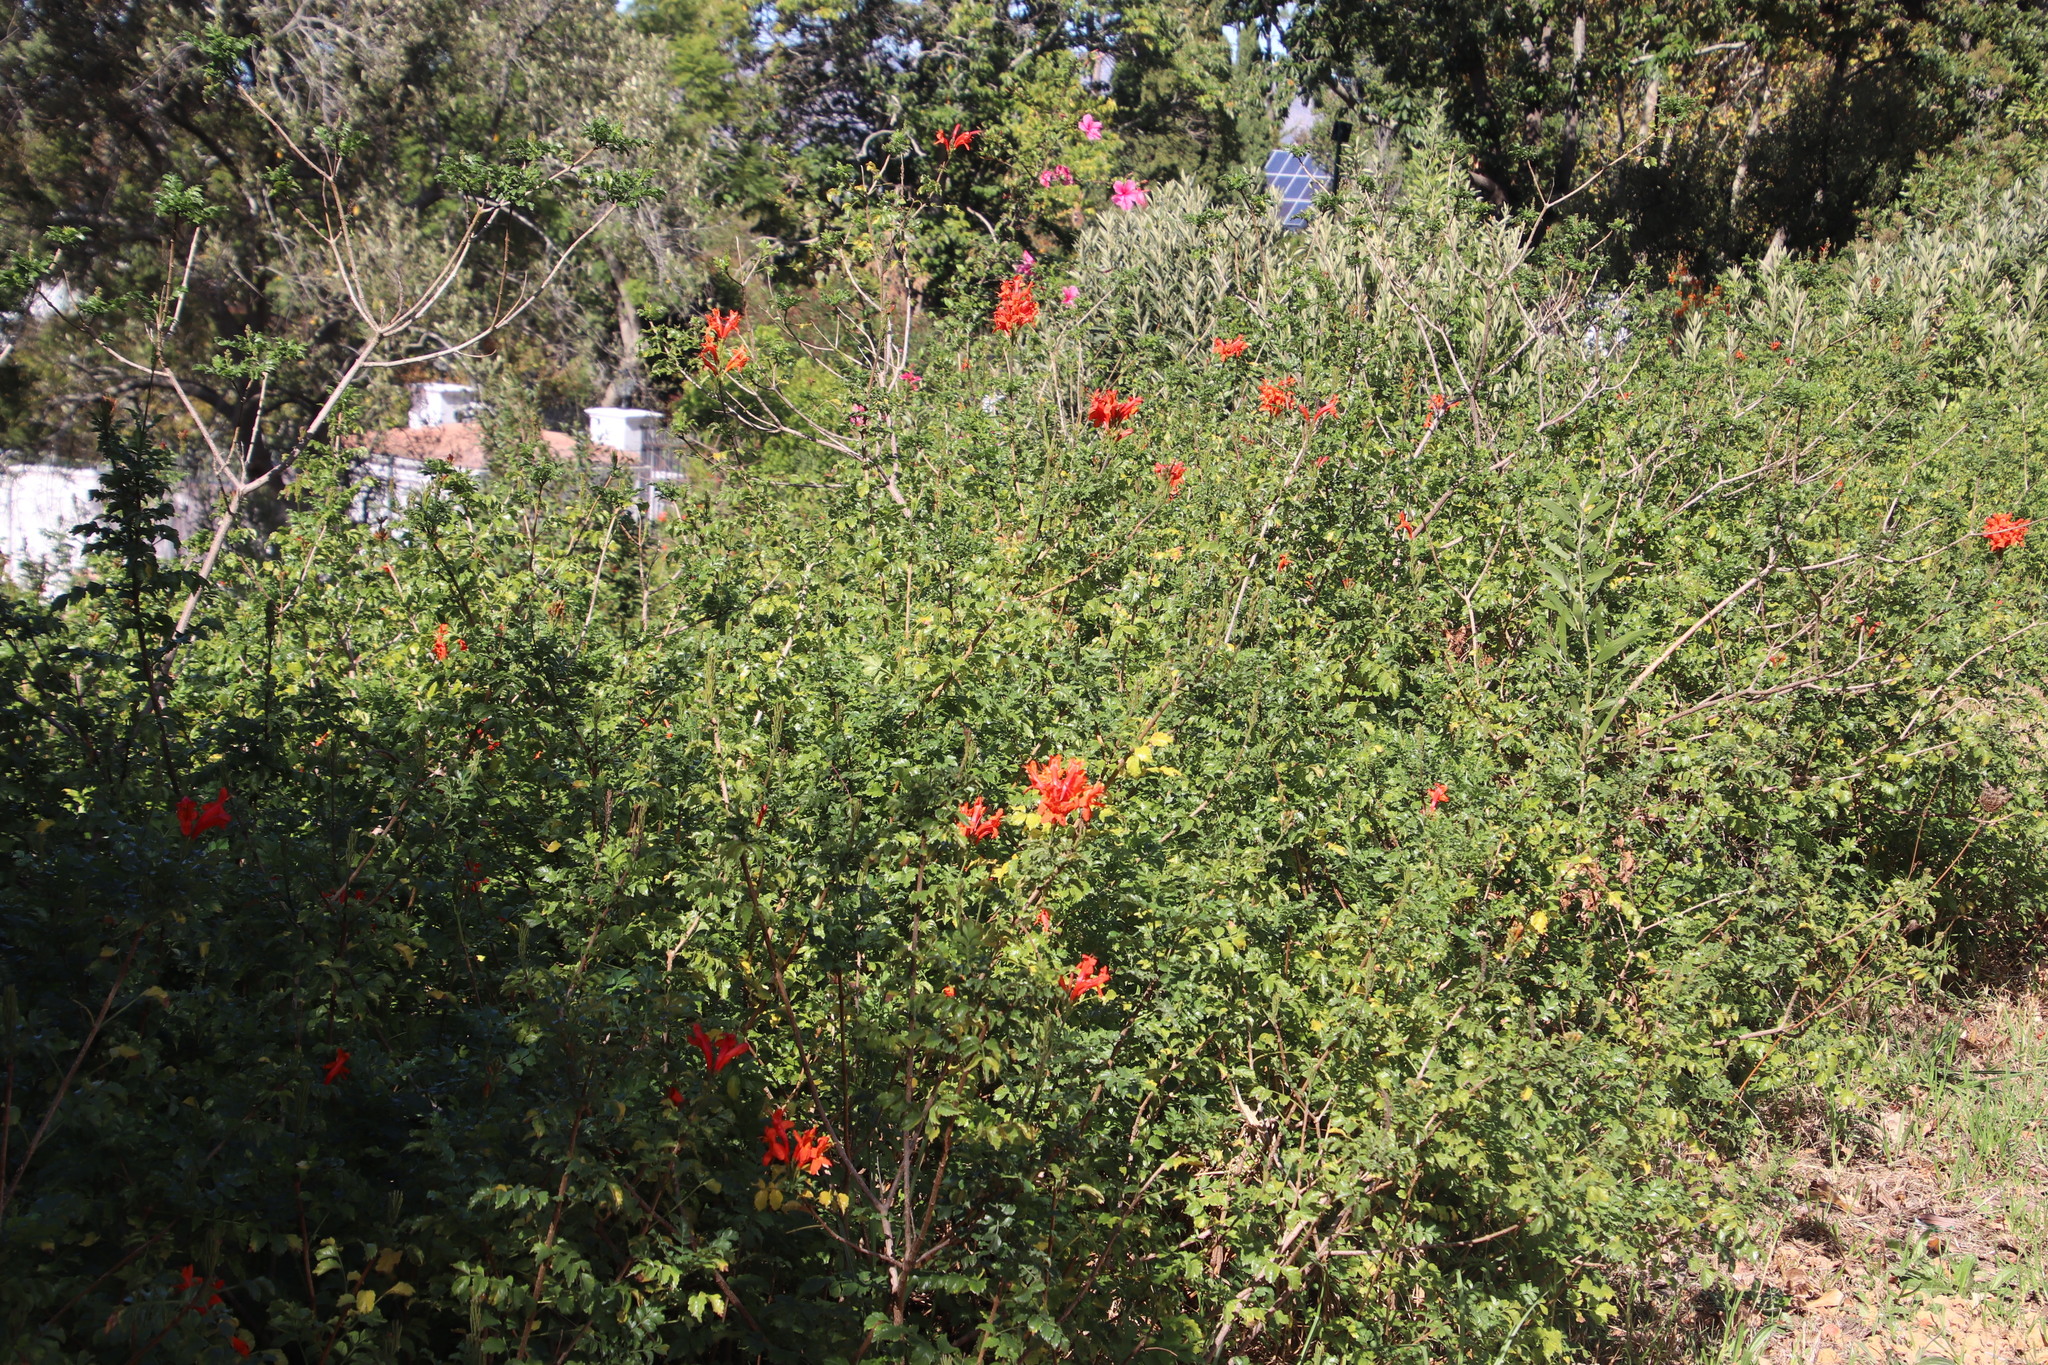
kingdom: Plantae
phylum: Tracheophyta
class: Magnoliopsida
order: Lamiales
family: Bignoniaceae
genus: Tecomaria
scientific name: Tecomaria capensis
